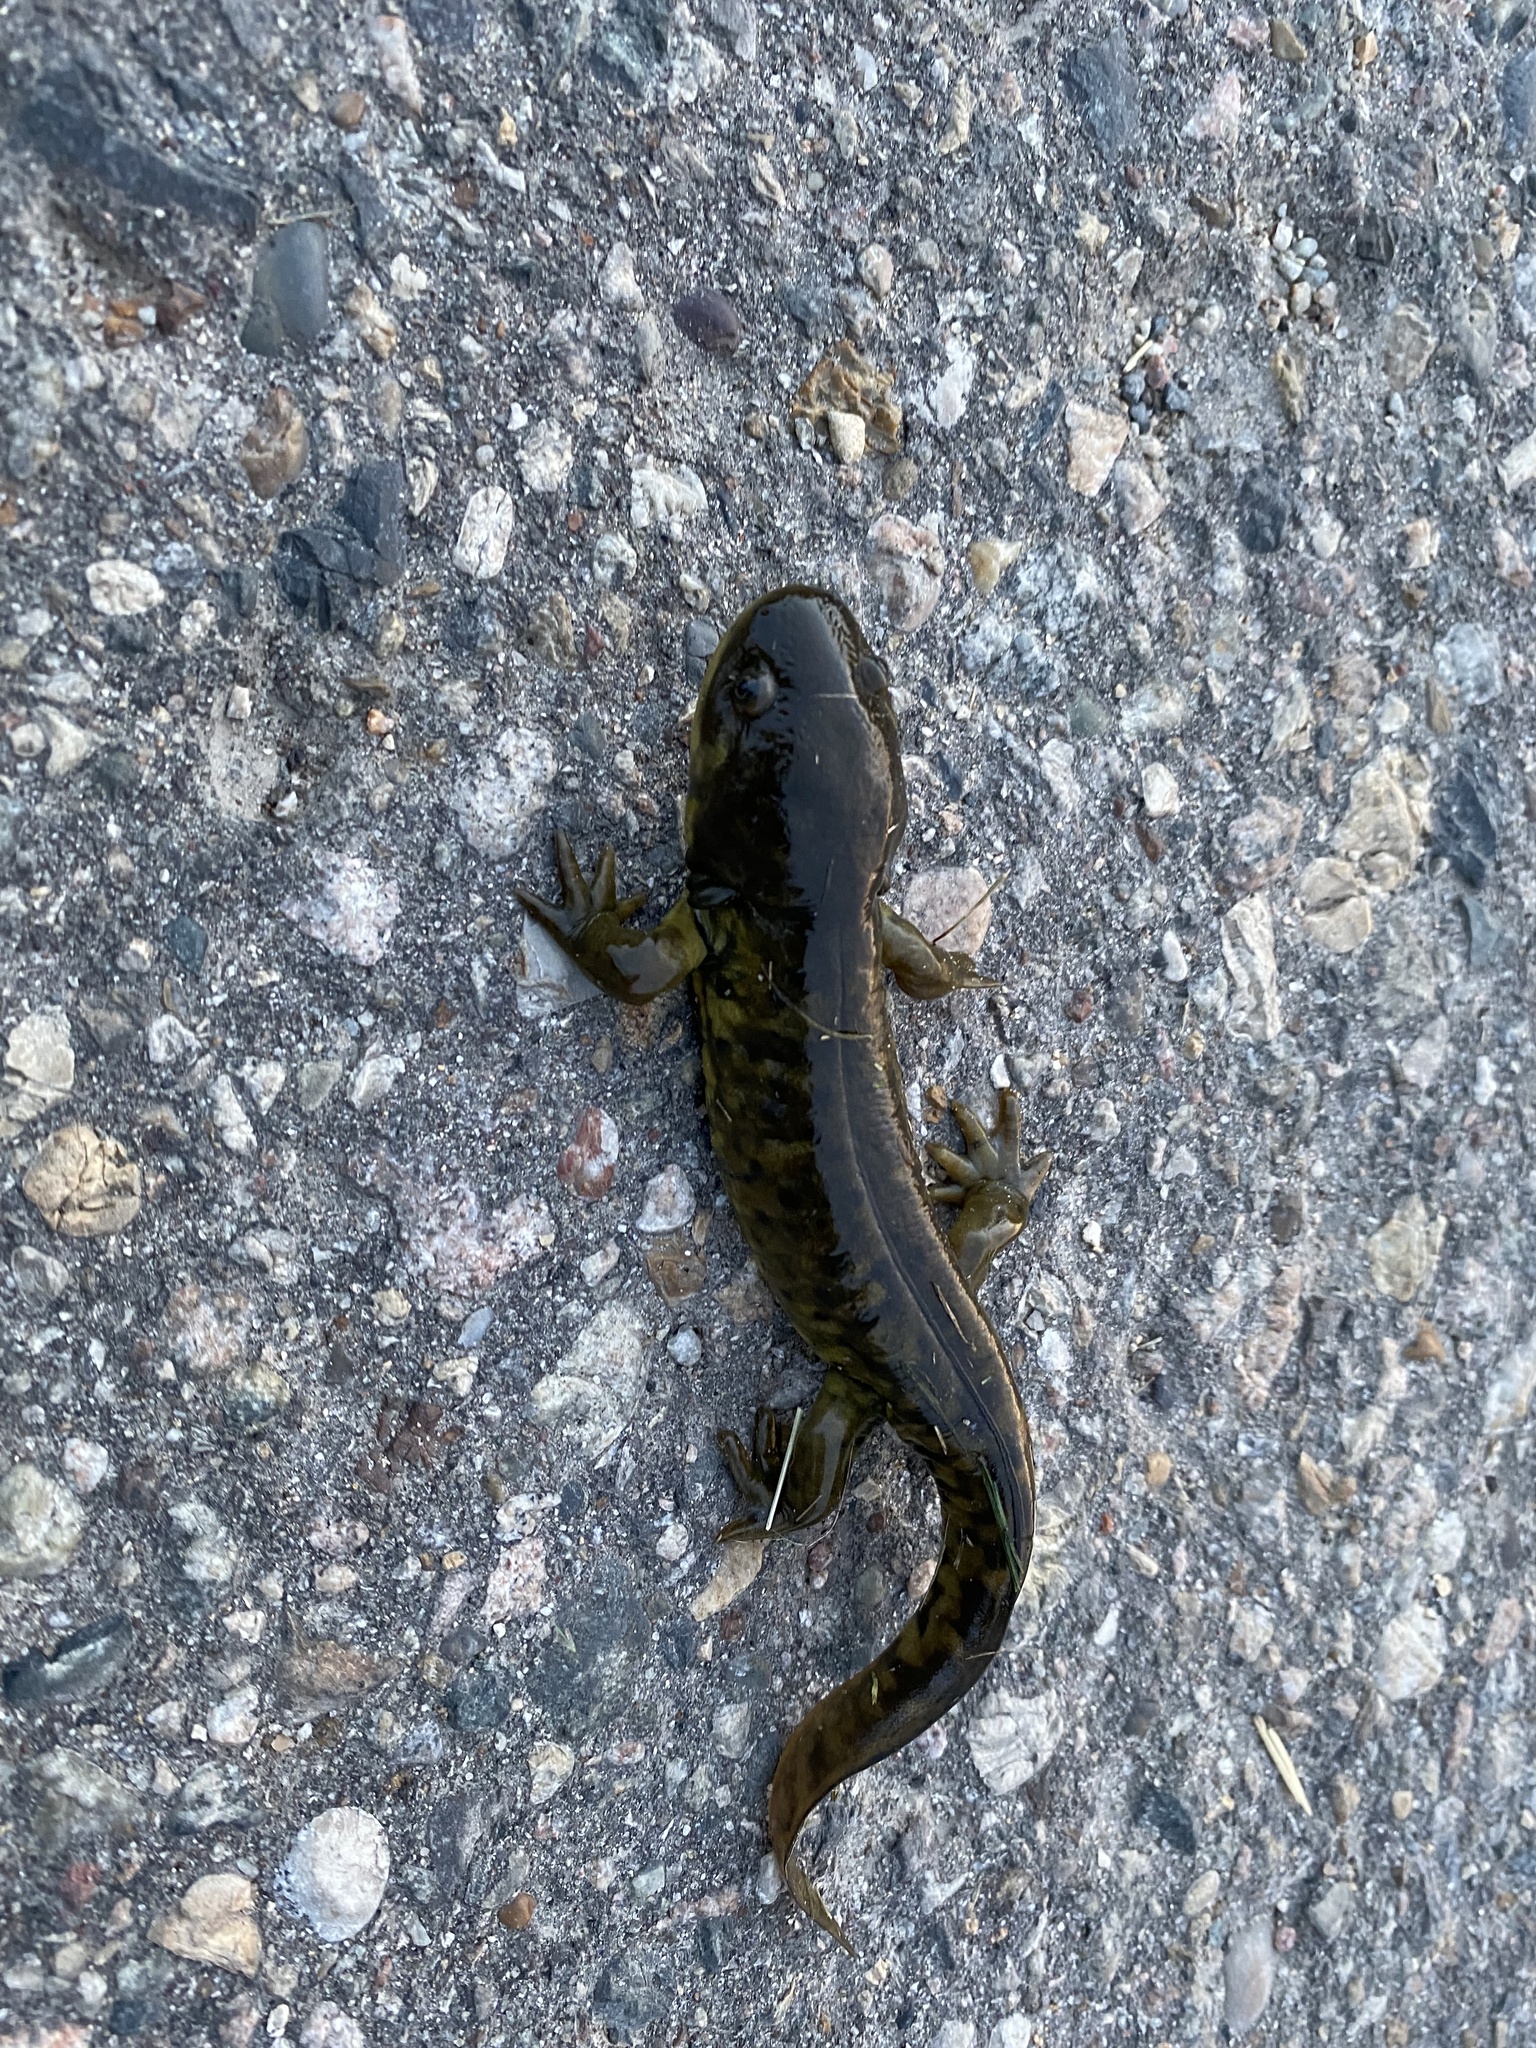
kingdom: Animalia
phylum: Chordata
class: Amphibia
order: Caudata
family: Ambystomatidae
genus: Ambystoma
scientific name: Ambystoma mavortium
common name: Western tiger salamander
